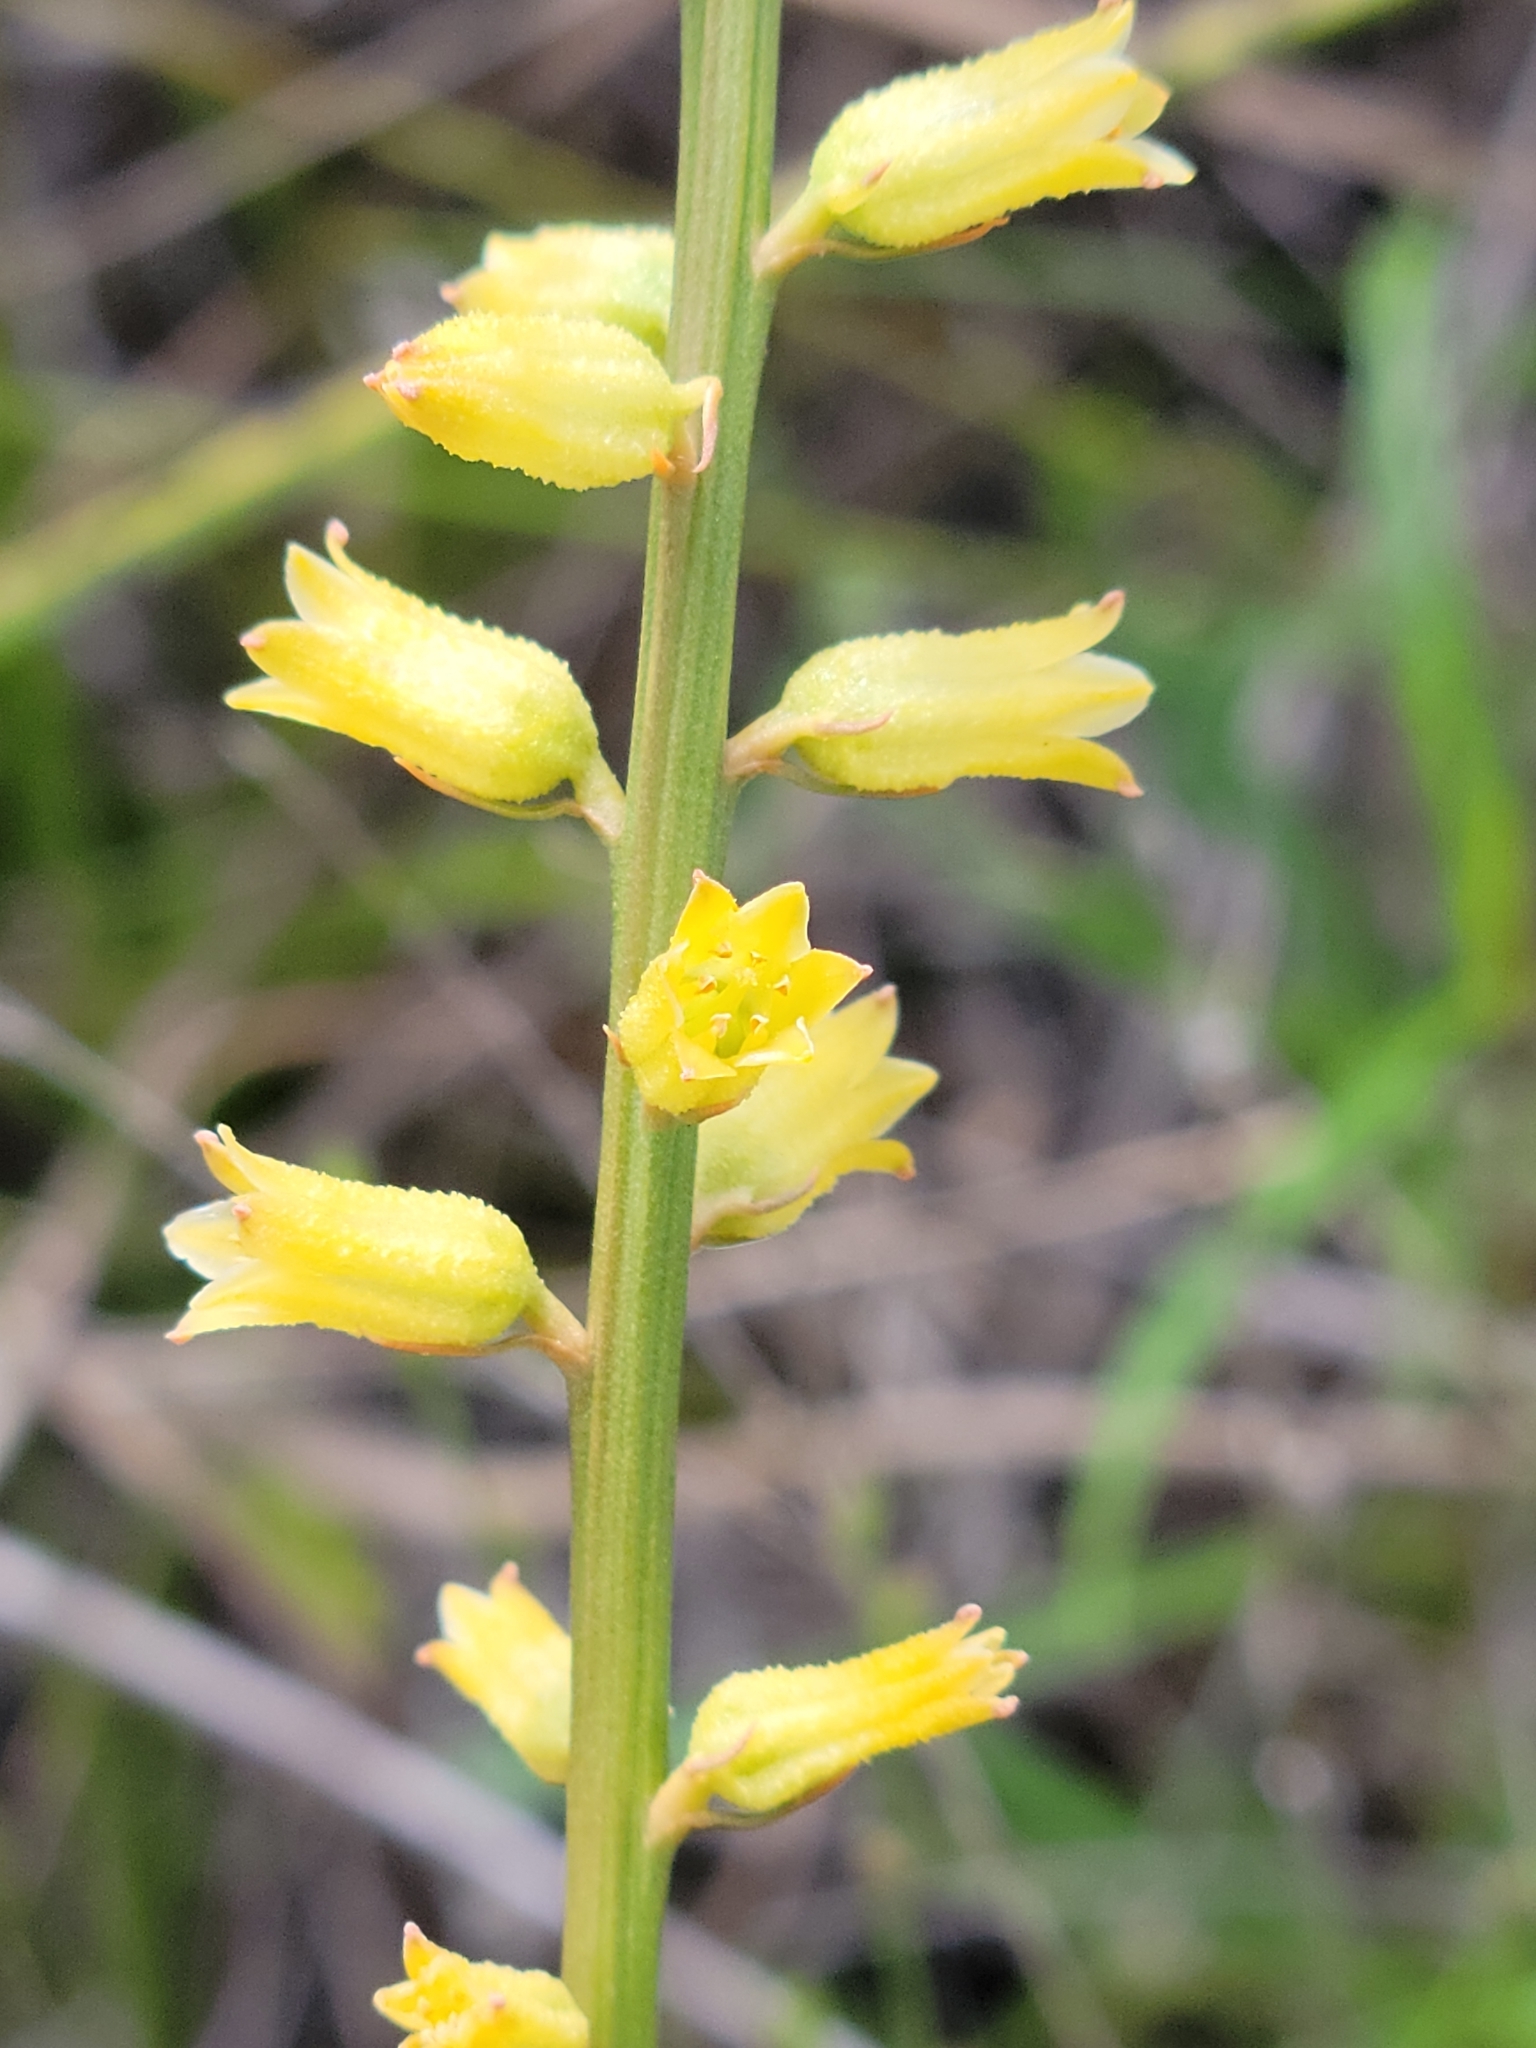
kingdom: Plantae
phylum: Tracheophyta
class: Liliopsida
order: Dioscoreales
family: Nartheciaceae
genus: Aletris
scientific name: Aletris lutea
